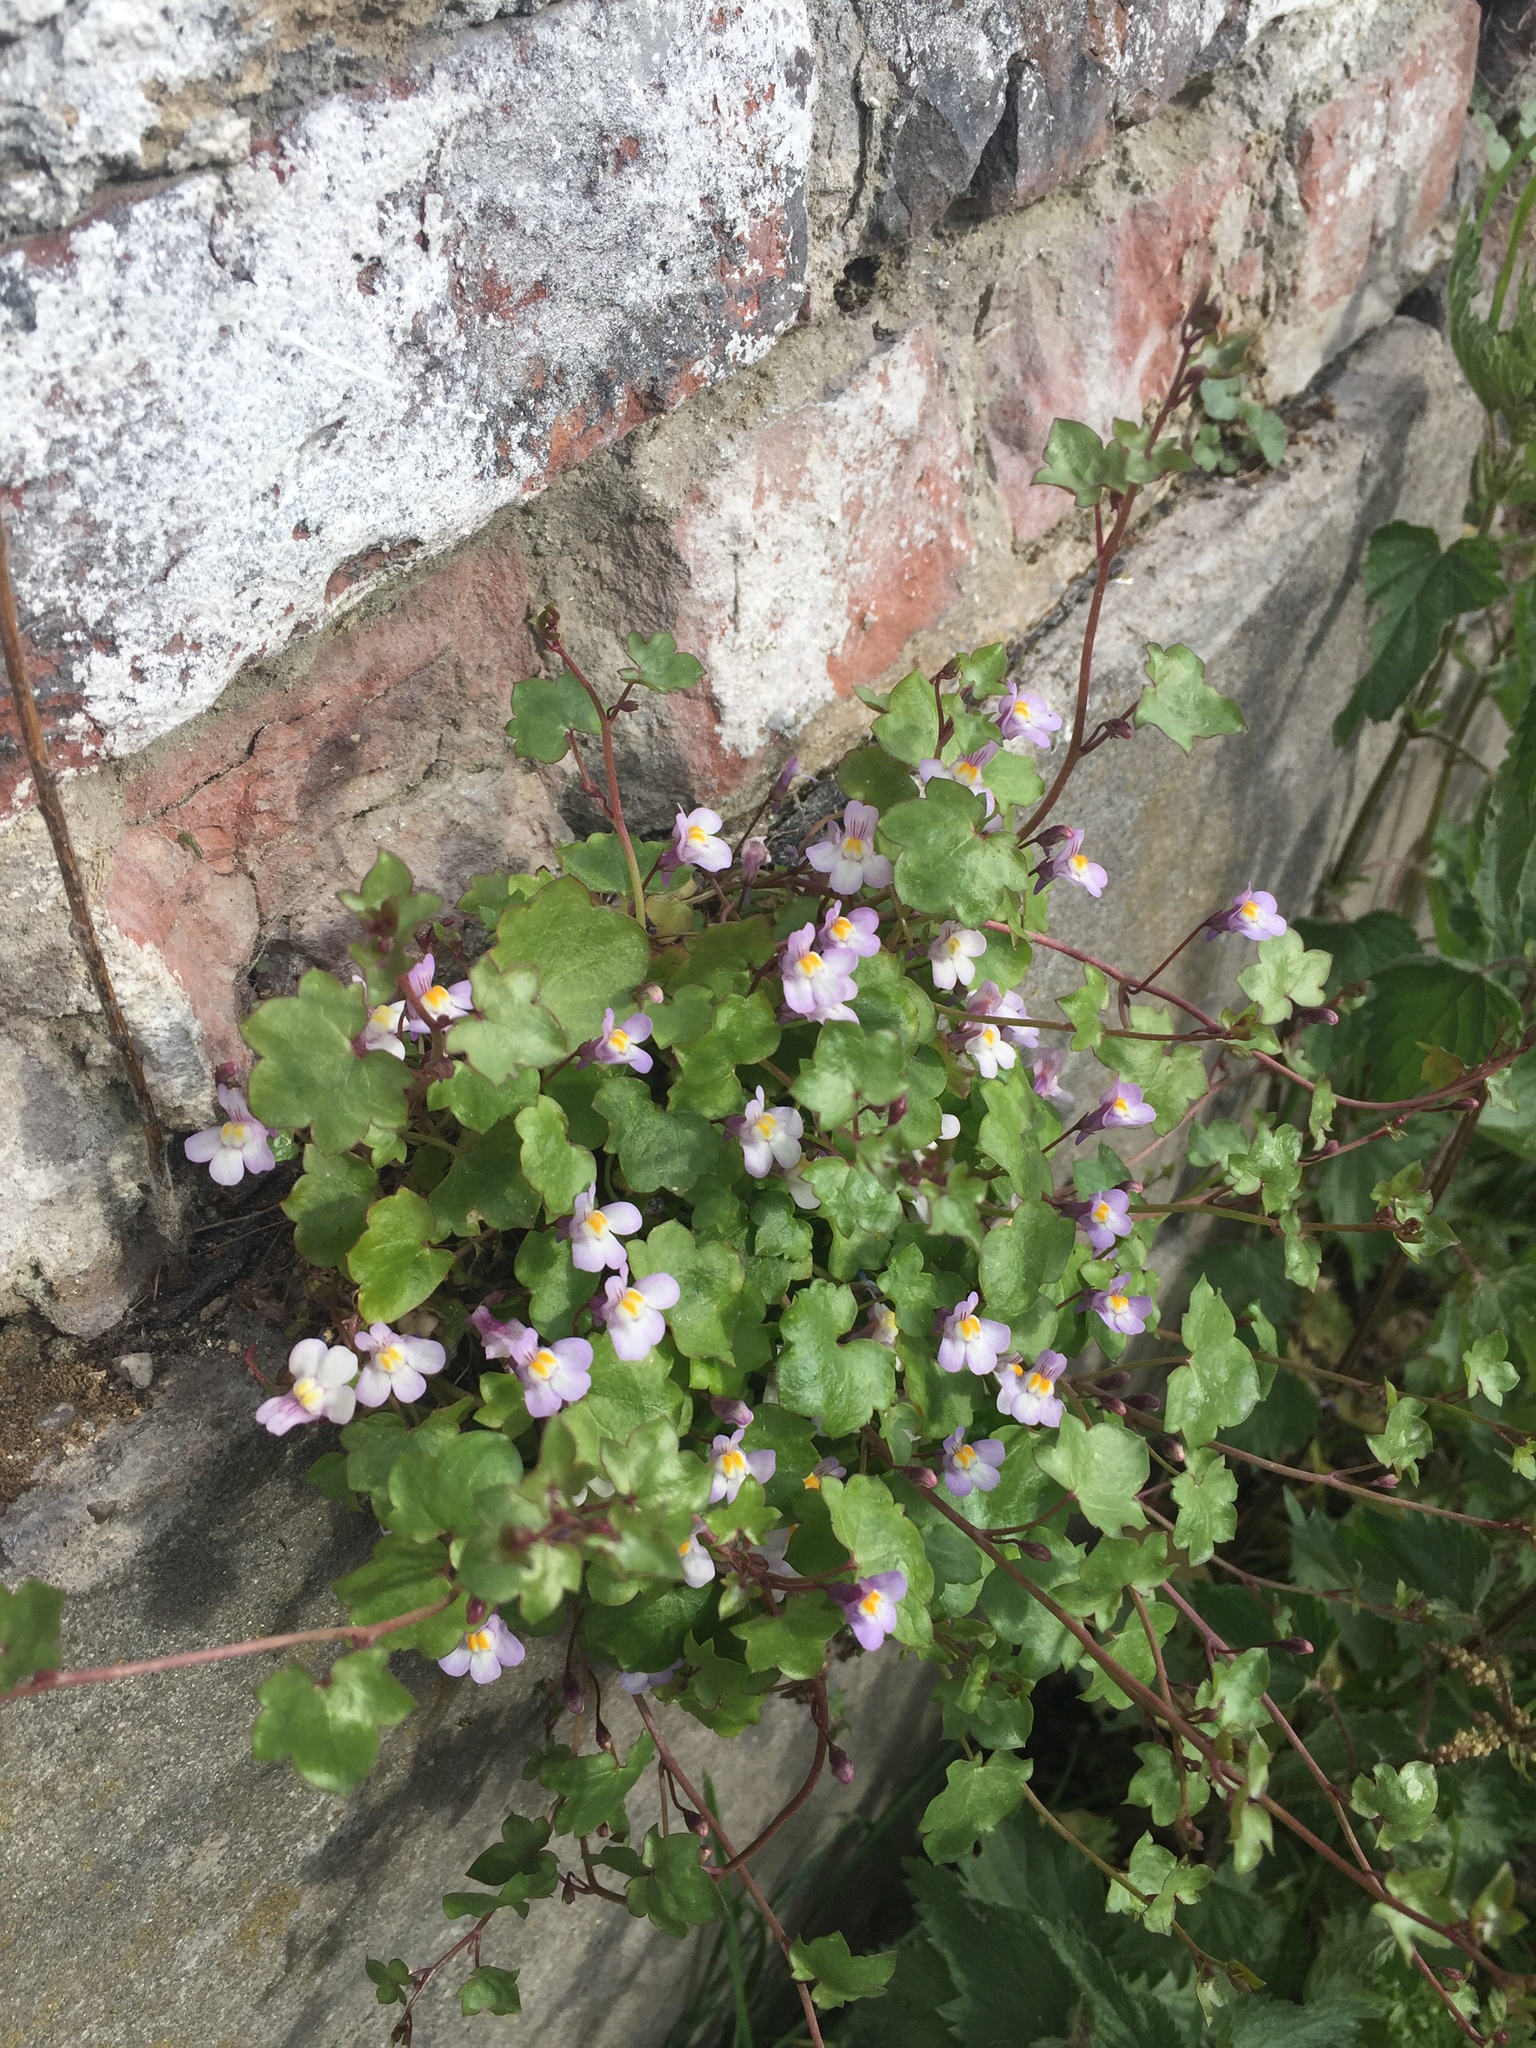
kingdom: Plantae
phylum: Tracheophyta
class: Magnoliopsida
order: Lamiales
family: Plantaginaceae
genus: Cymbalaria
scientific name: Cymbalaria muralis
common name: Ivy-leaved toadflax
